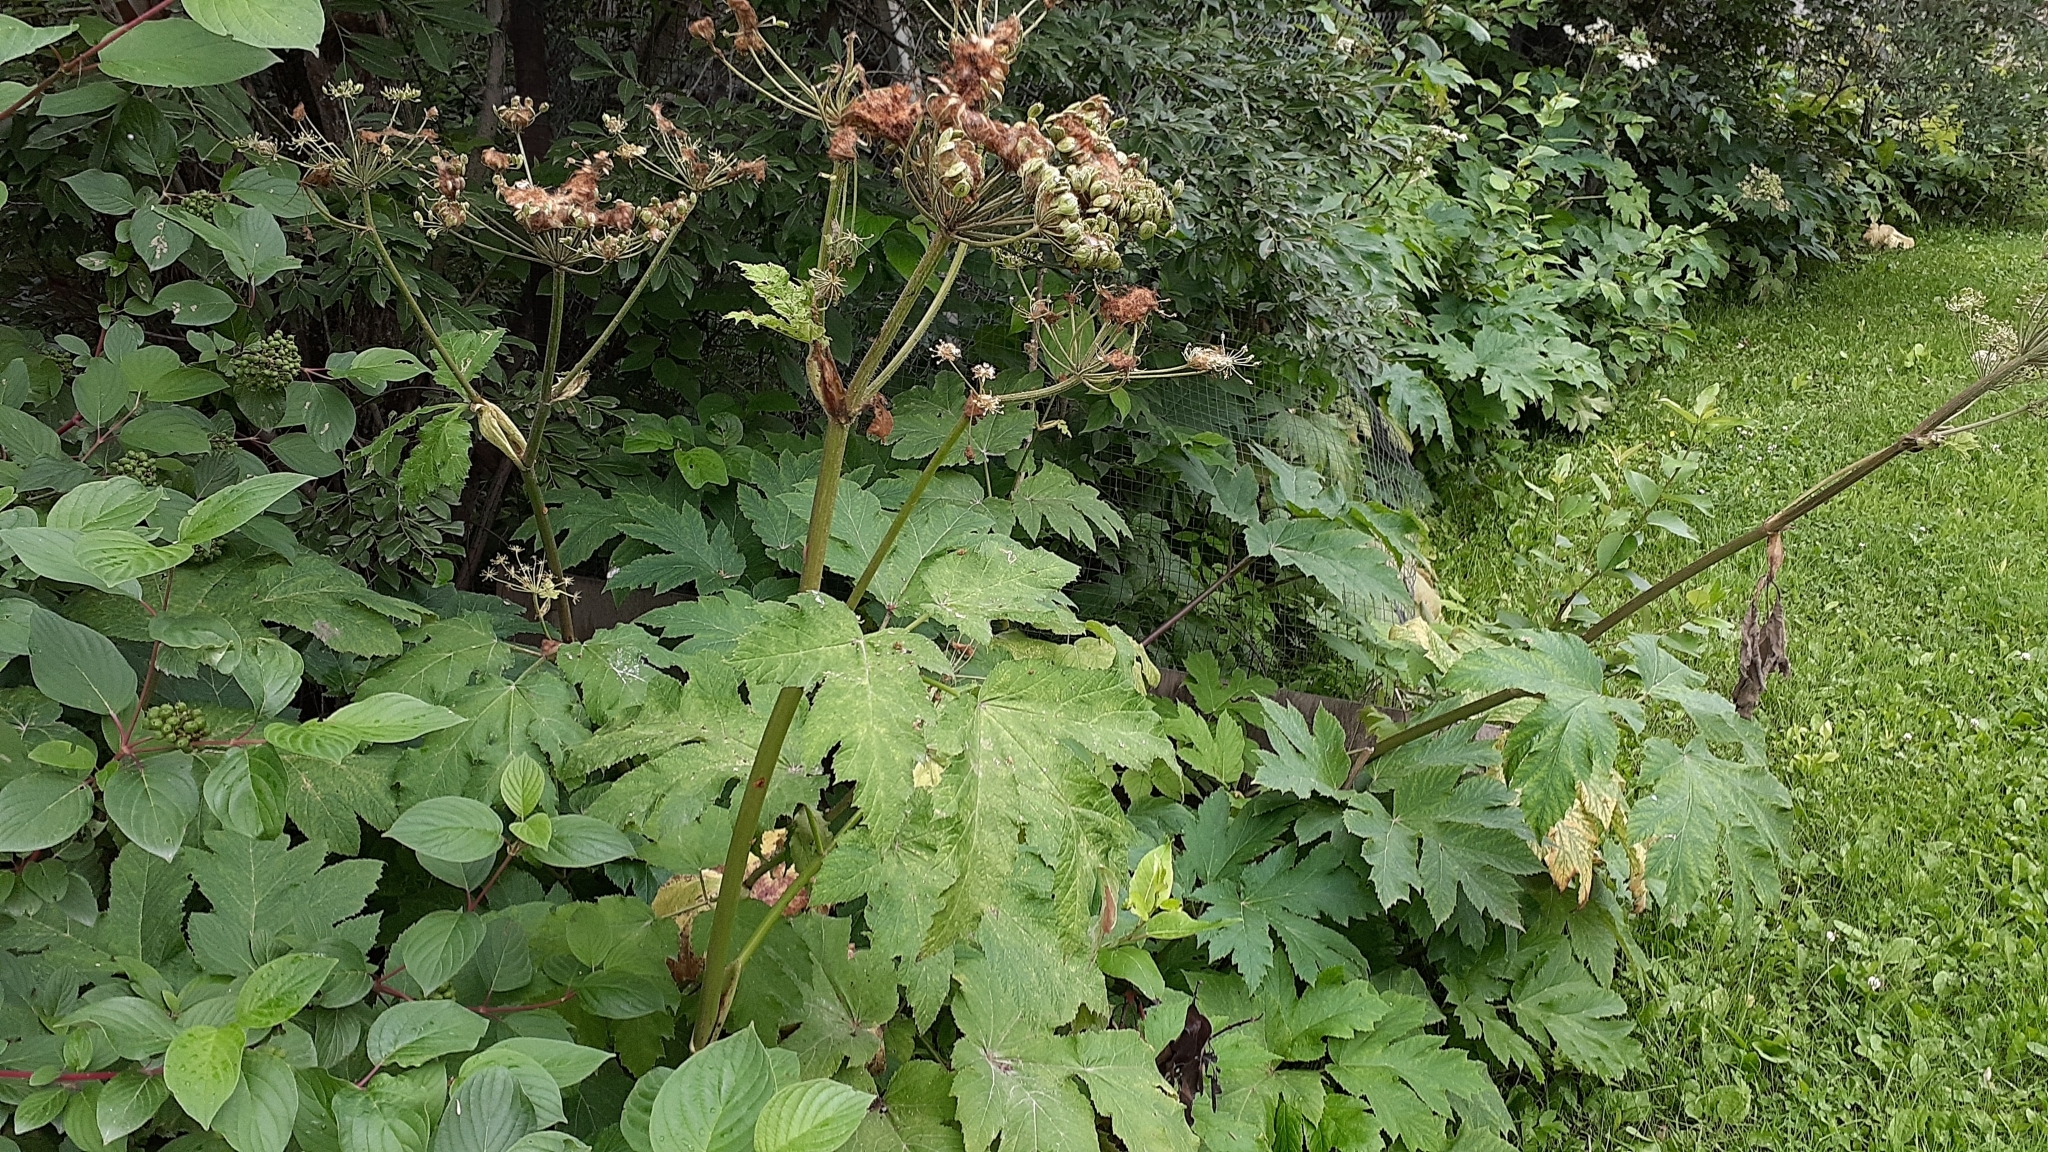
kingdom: Plantae
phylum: Tracheophyta
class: Magnoliopsida
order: Apiales
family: Apiaceae
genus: Heracleum
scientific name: Heracleum maximum
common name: American cow parsnip
